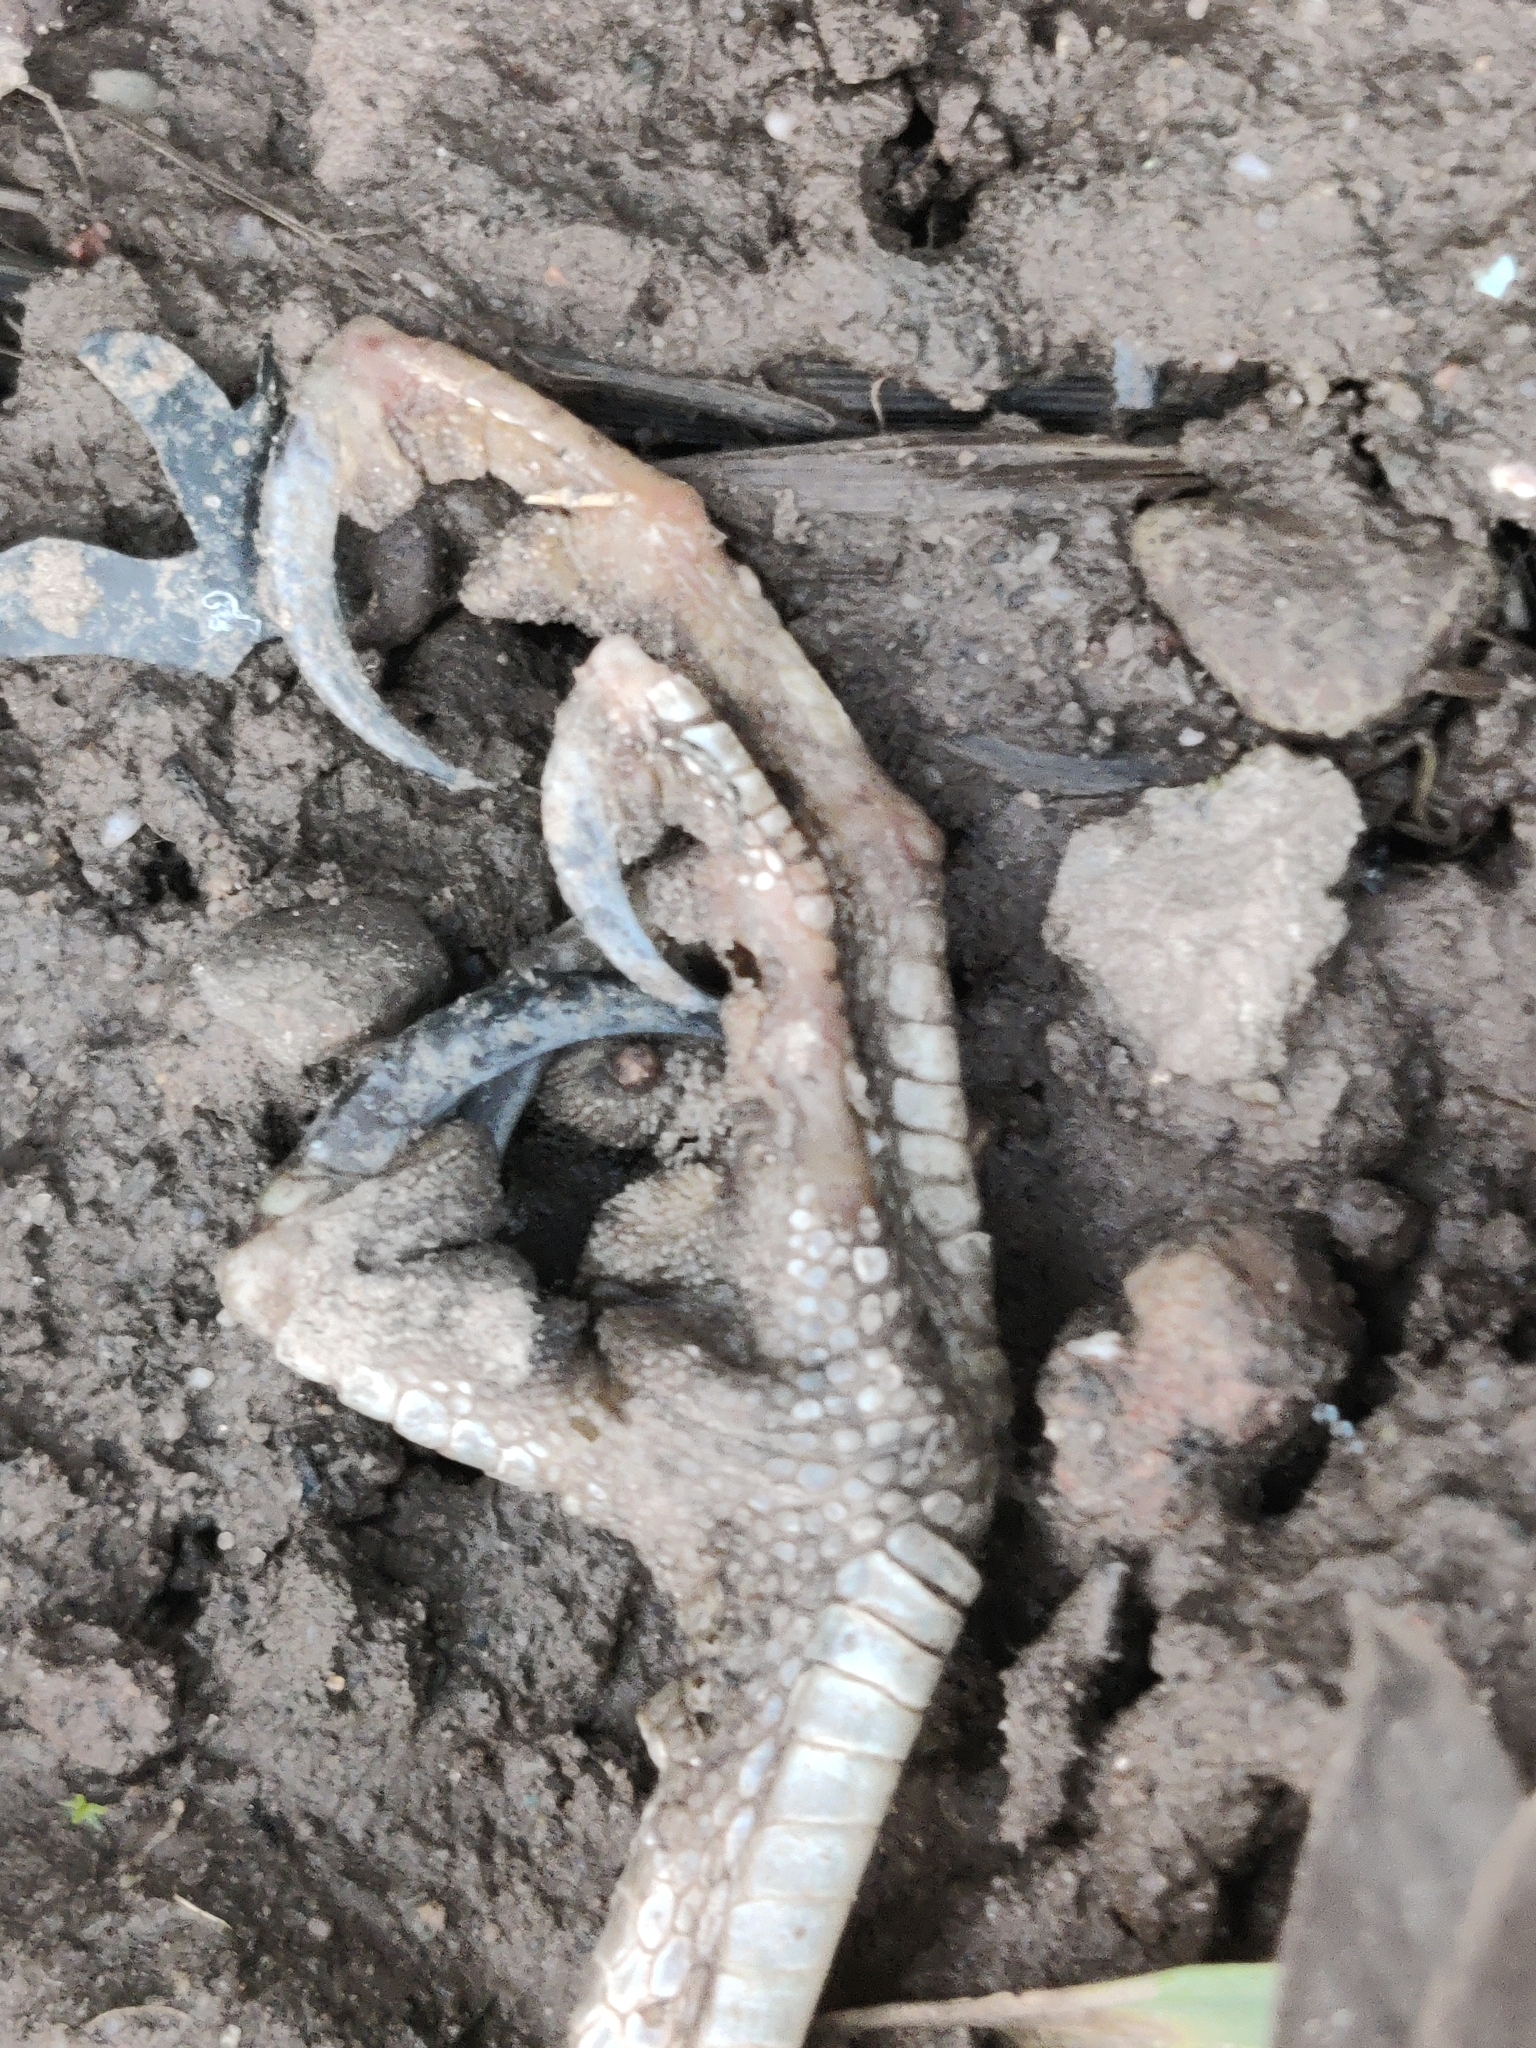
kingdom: Animalia
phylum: Chordata
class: Aves
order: Accipitriformes
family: Accipitridae
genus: Accipiter
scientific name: Accipiter nisus
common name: Eurasian sparrowhawk
